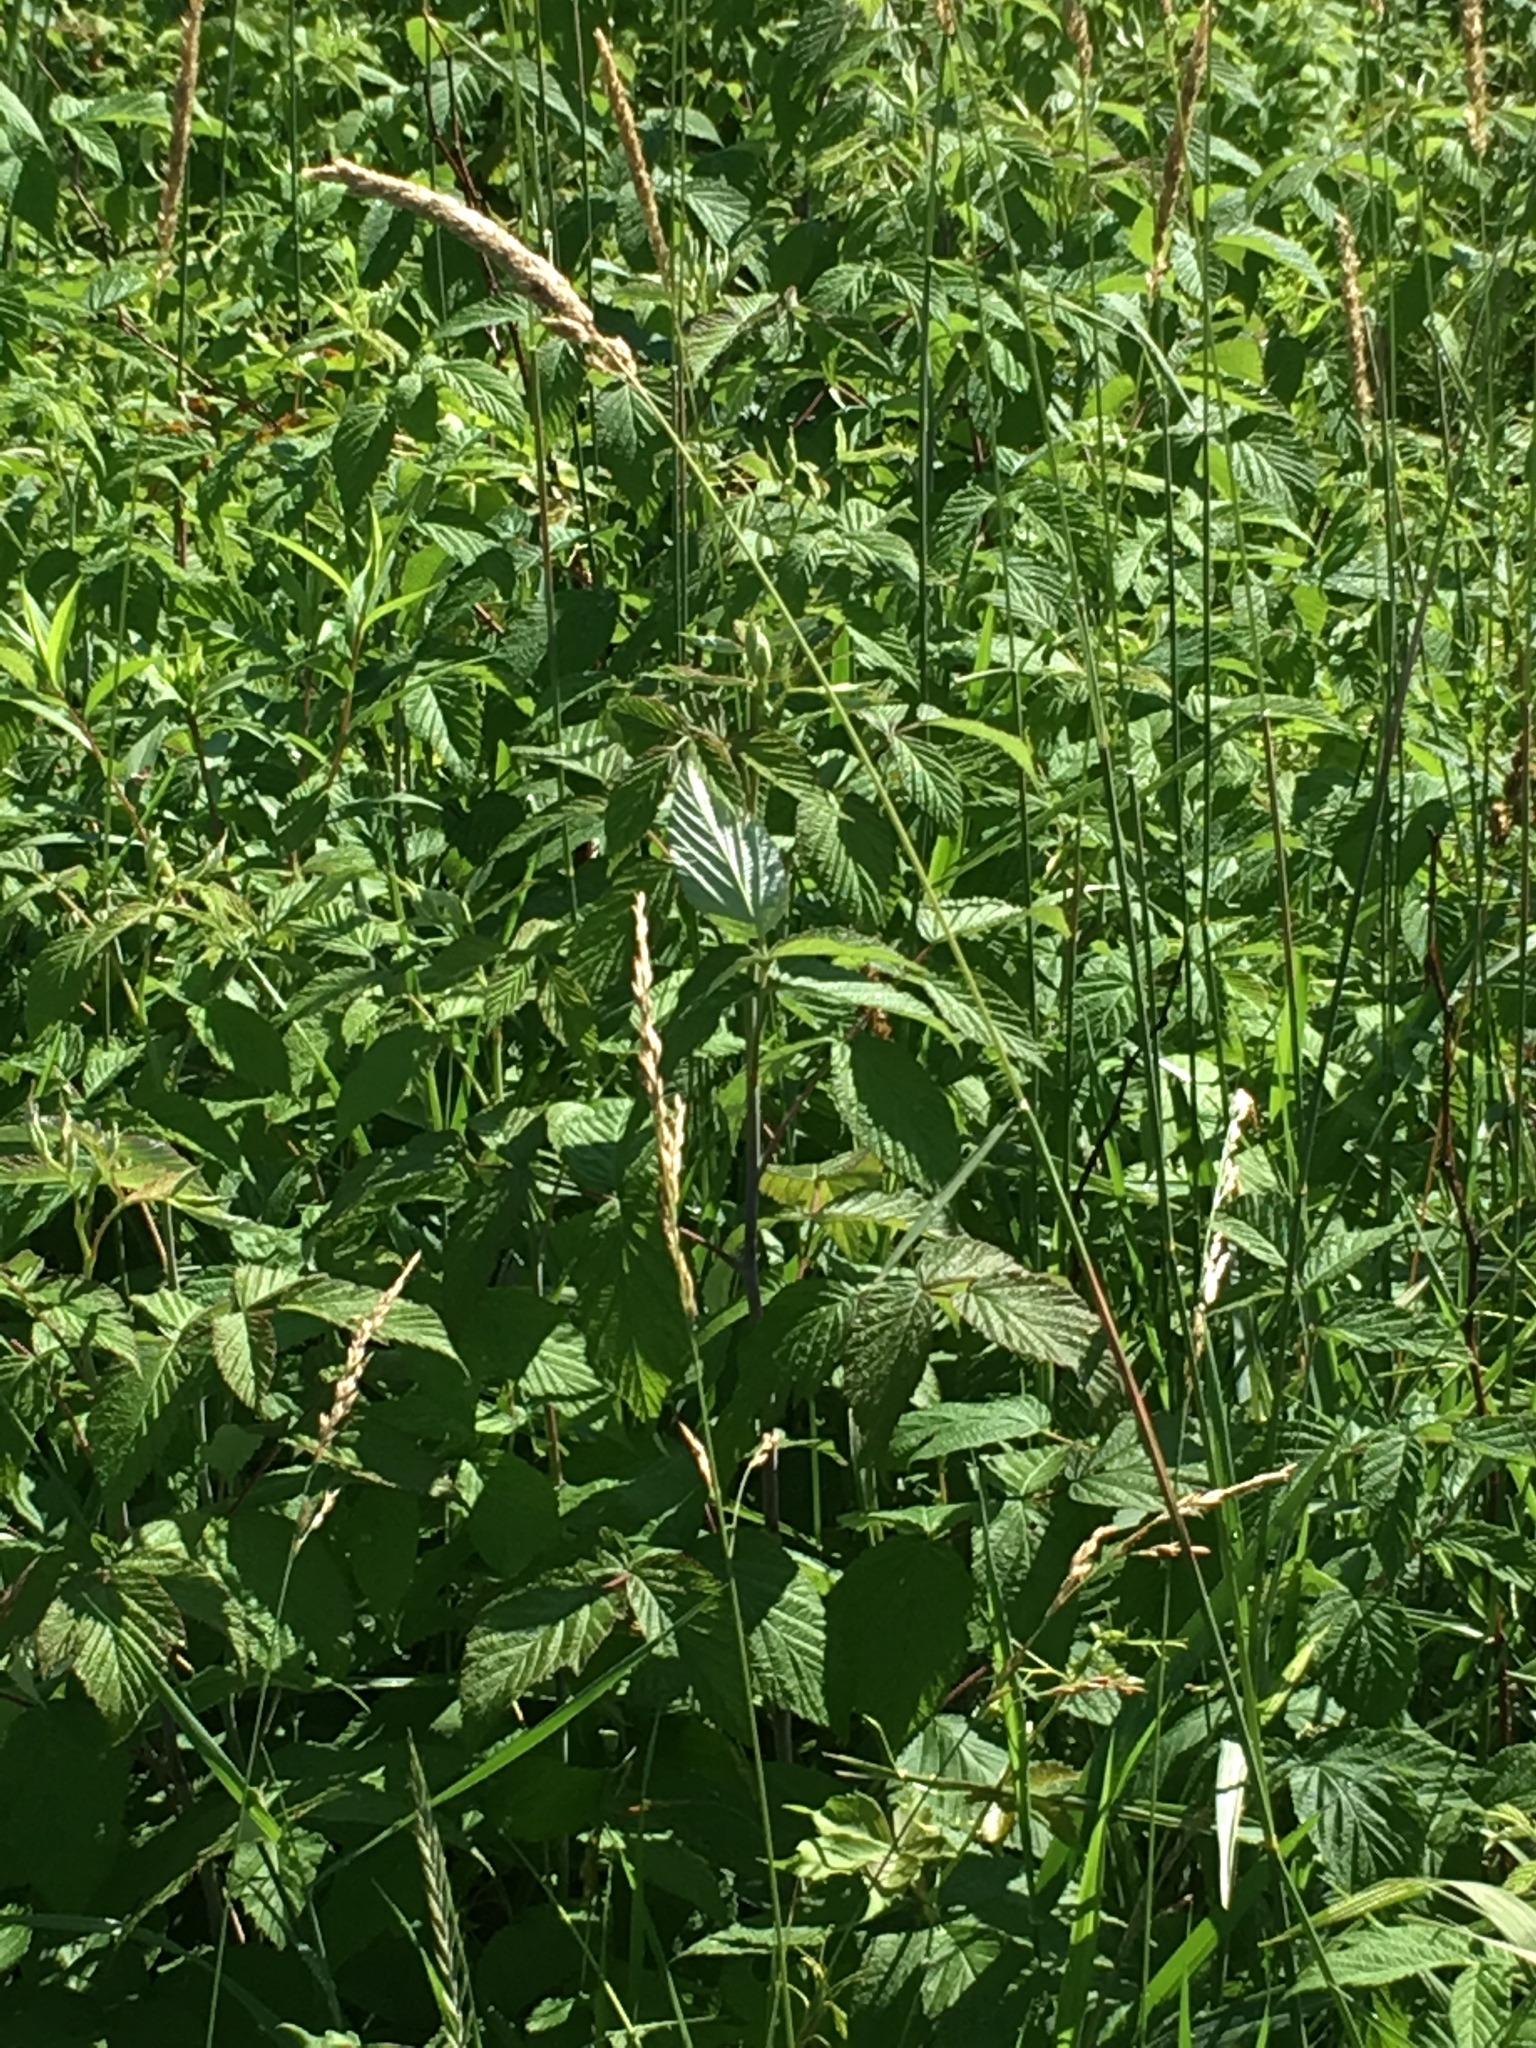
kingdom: Plantae
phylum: Tracheophyta
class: Magnoliopsida
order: Rosales
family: Rosaceae
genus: Rubus
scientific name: Rubus occidentalis
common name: Black raspberry
